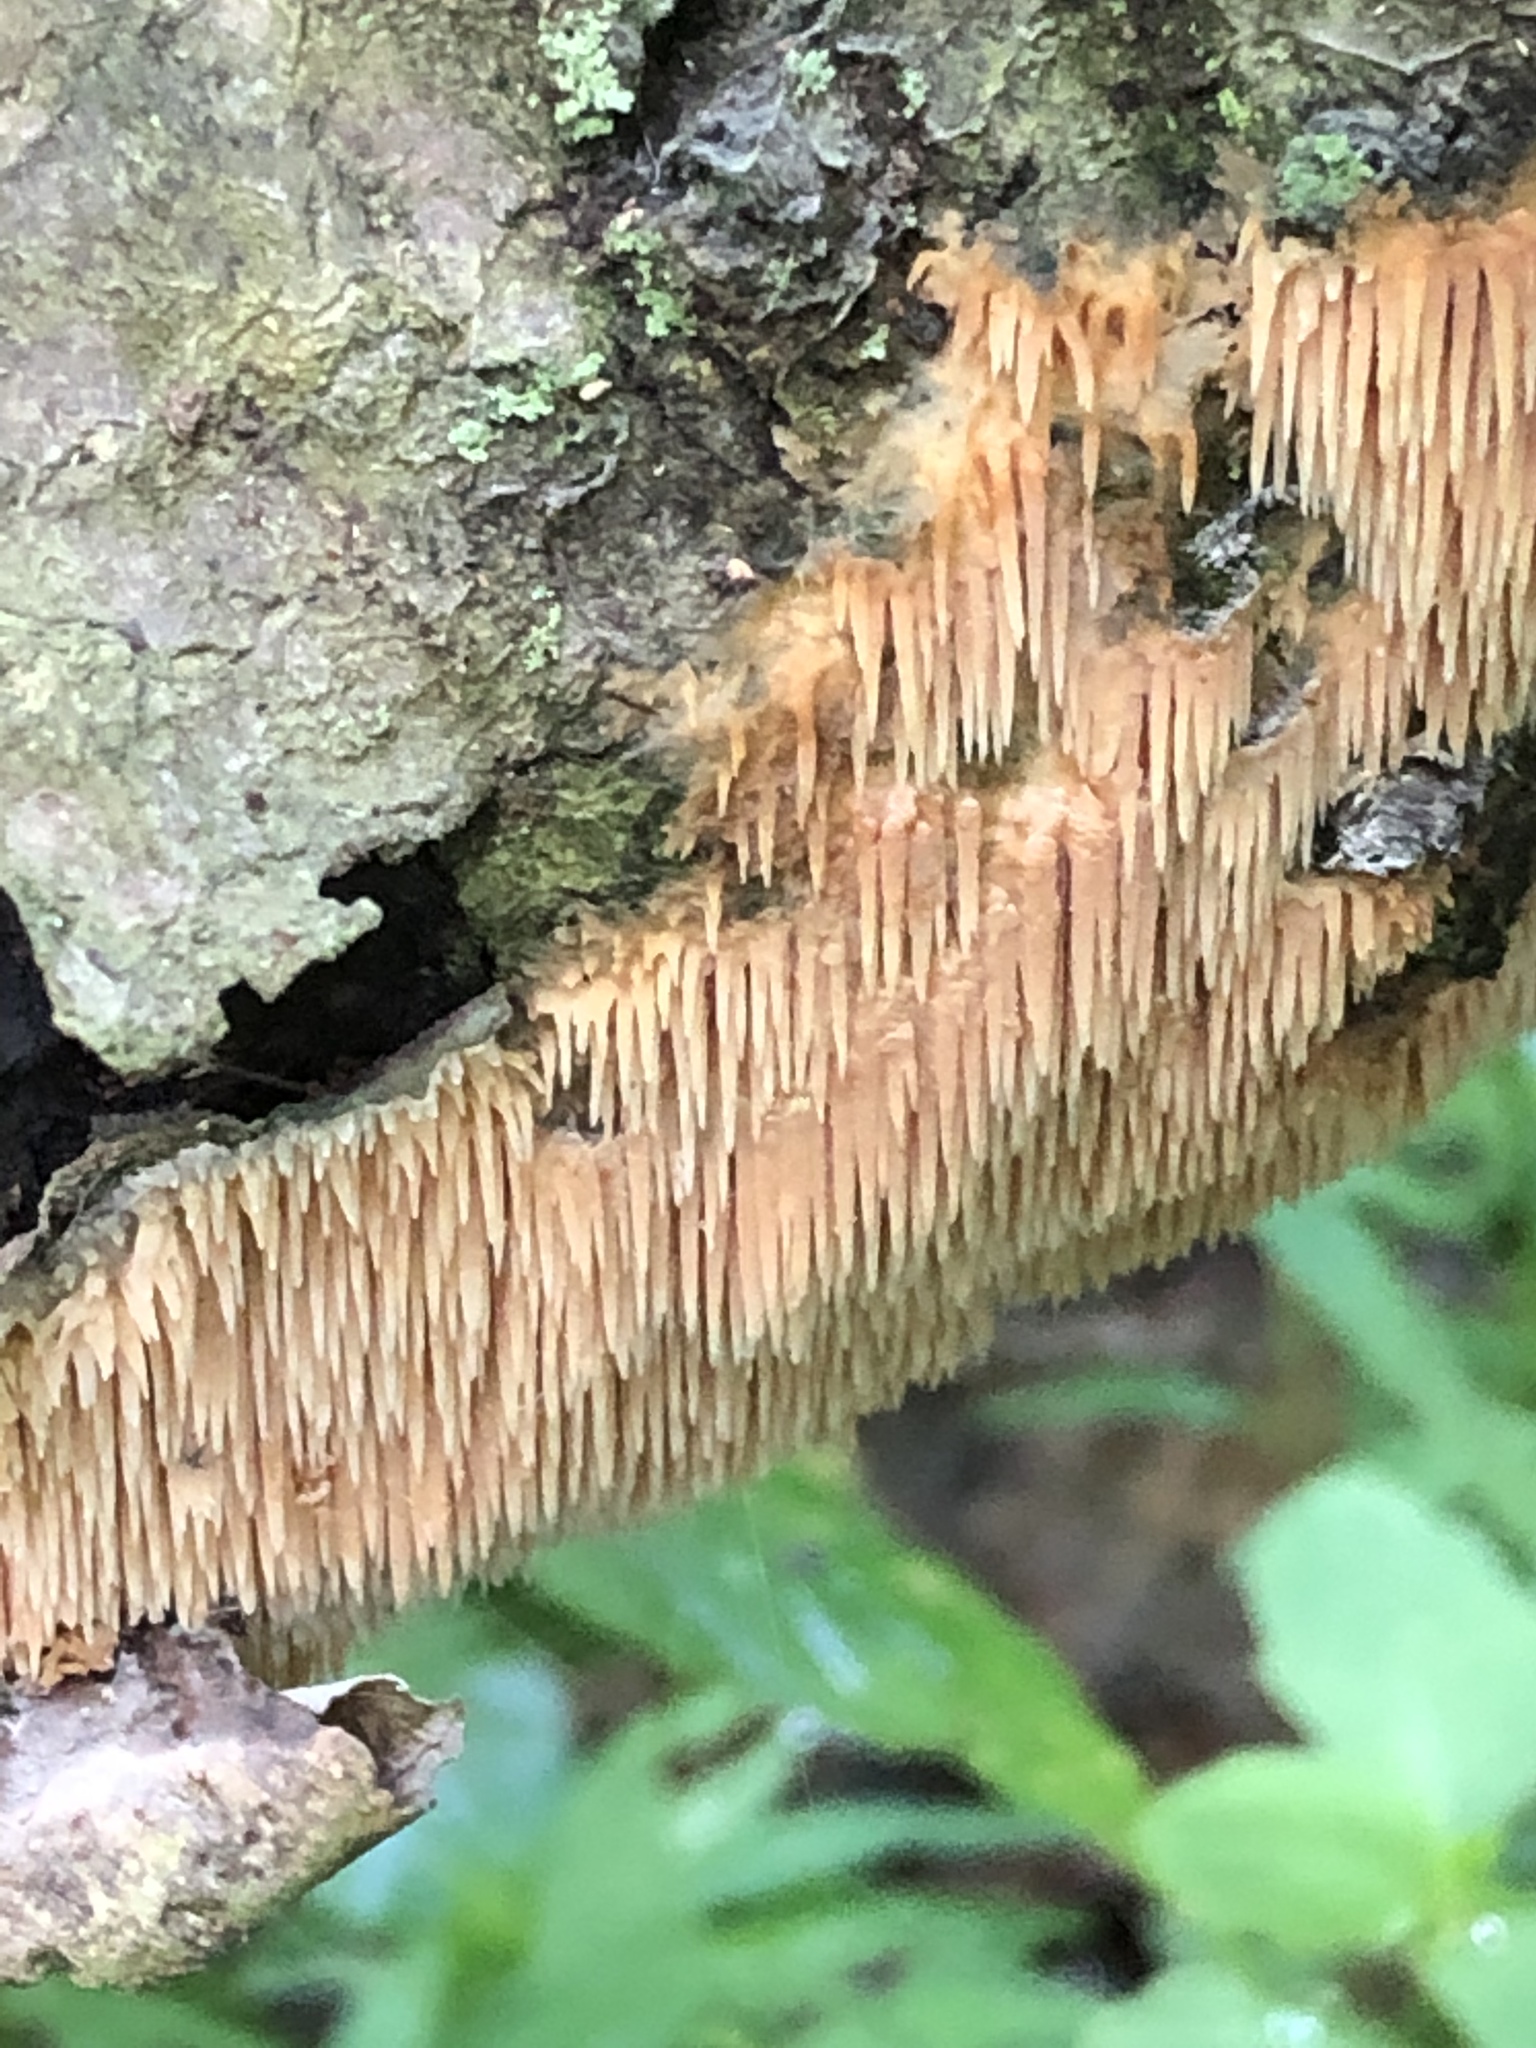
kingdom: Fungi
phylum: Basidiomycota
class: Agaricomycetes
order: Agaricales
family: Radulomycetaceae
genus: Radulomyces
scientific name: Radulomyces copelandii
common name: Asian beauty
